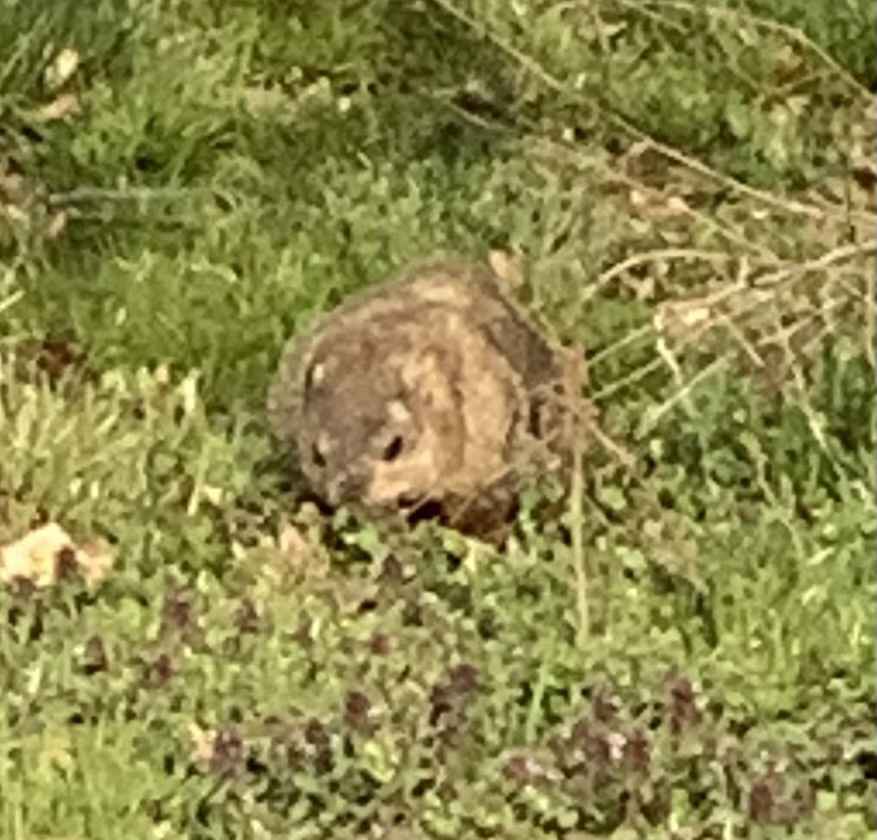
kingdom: Animalia
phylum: Chordata
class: Mammalia
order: Rodentia
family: Sciuridae
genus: Marmota
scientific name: Marmota monax
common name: Groundhog
